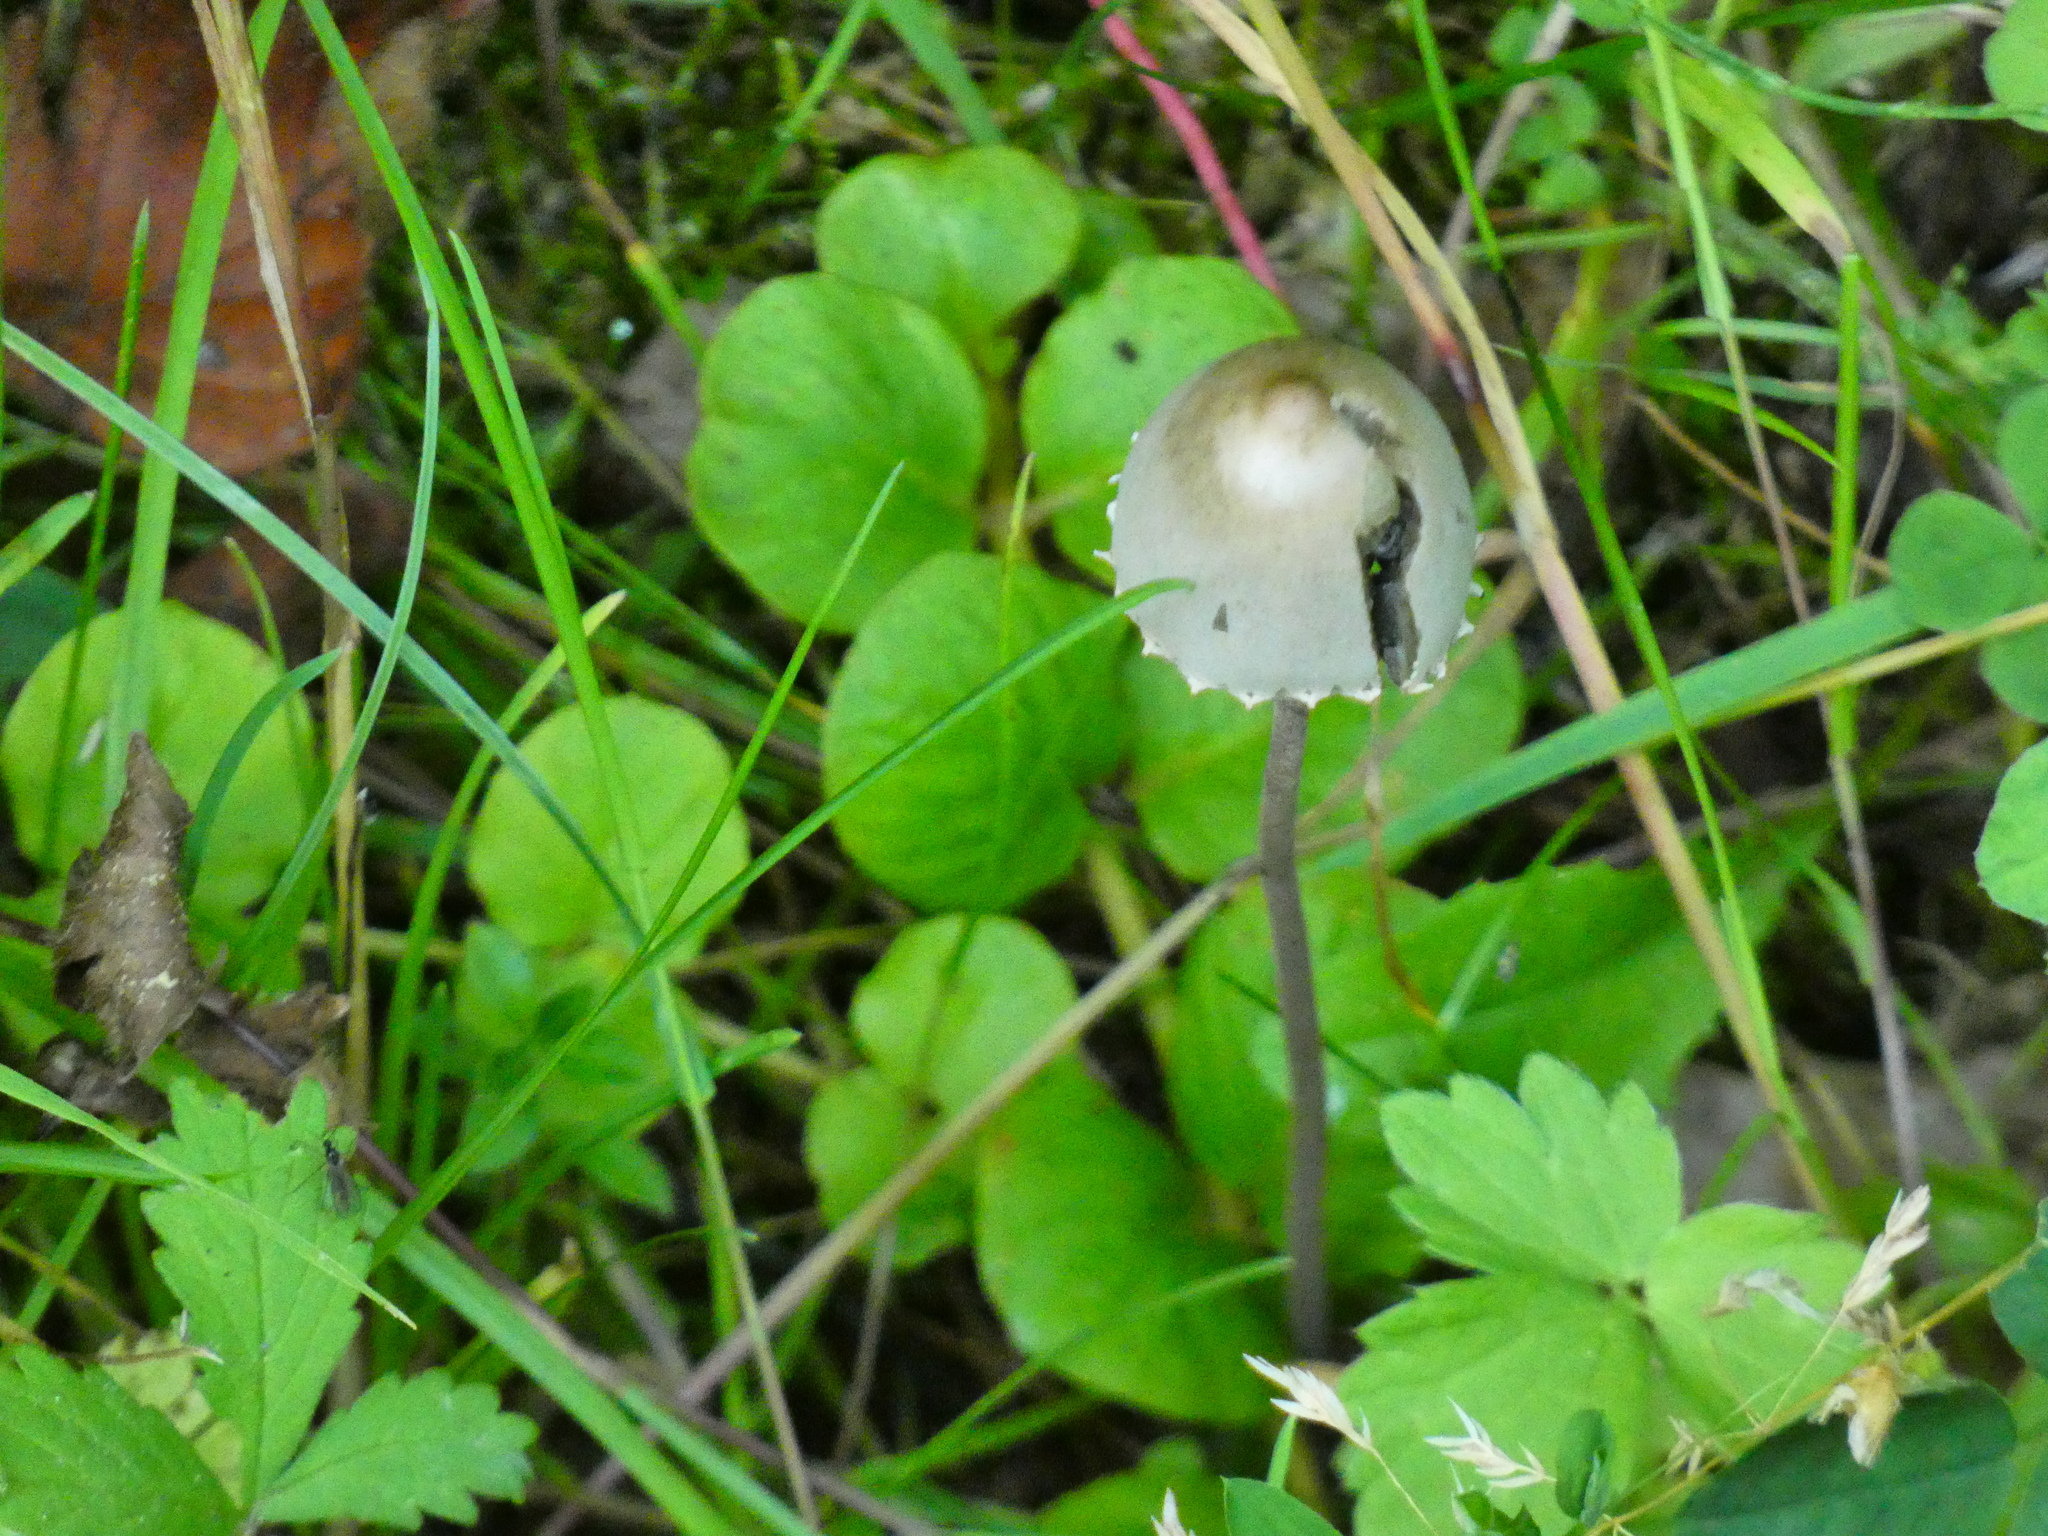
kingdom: Fungi
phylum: Basidiomycota
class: Agaricomycetes
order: Agaricales
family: Bolbitiaceae
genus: Panaeolus
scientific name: Panaeolus papilionaceus
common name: Petticoat mottlegill
